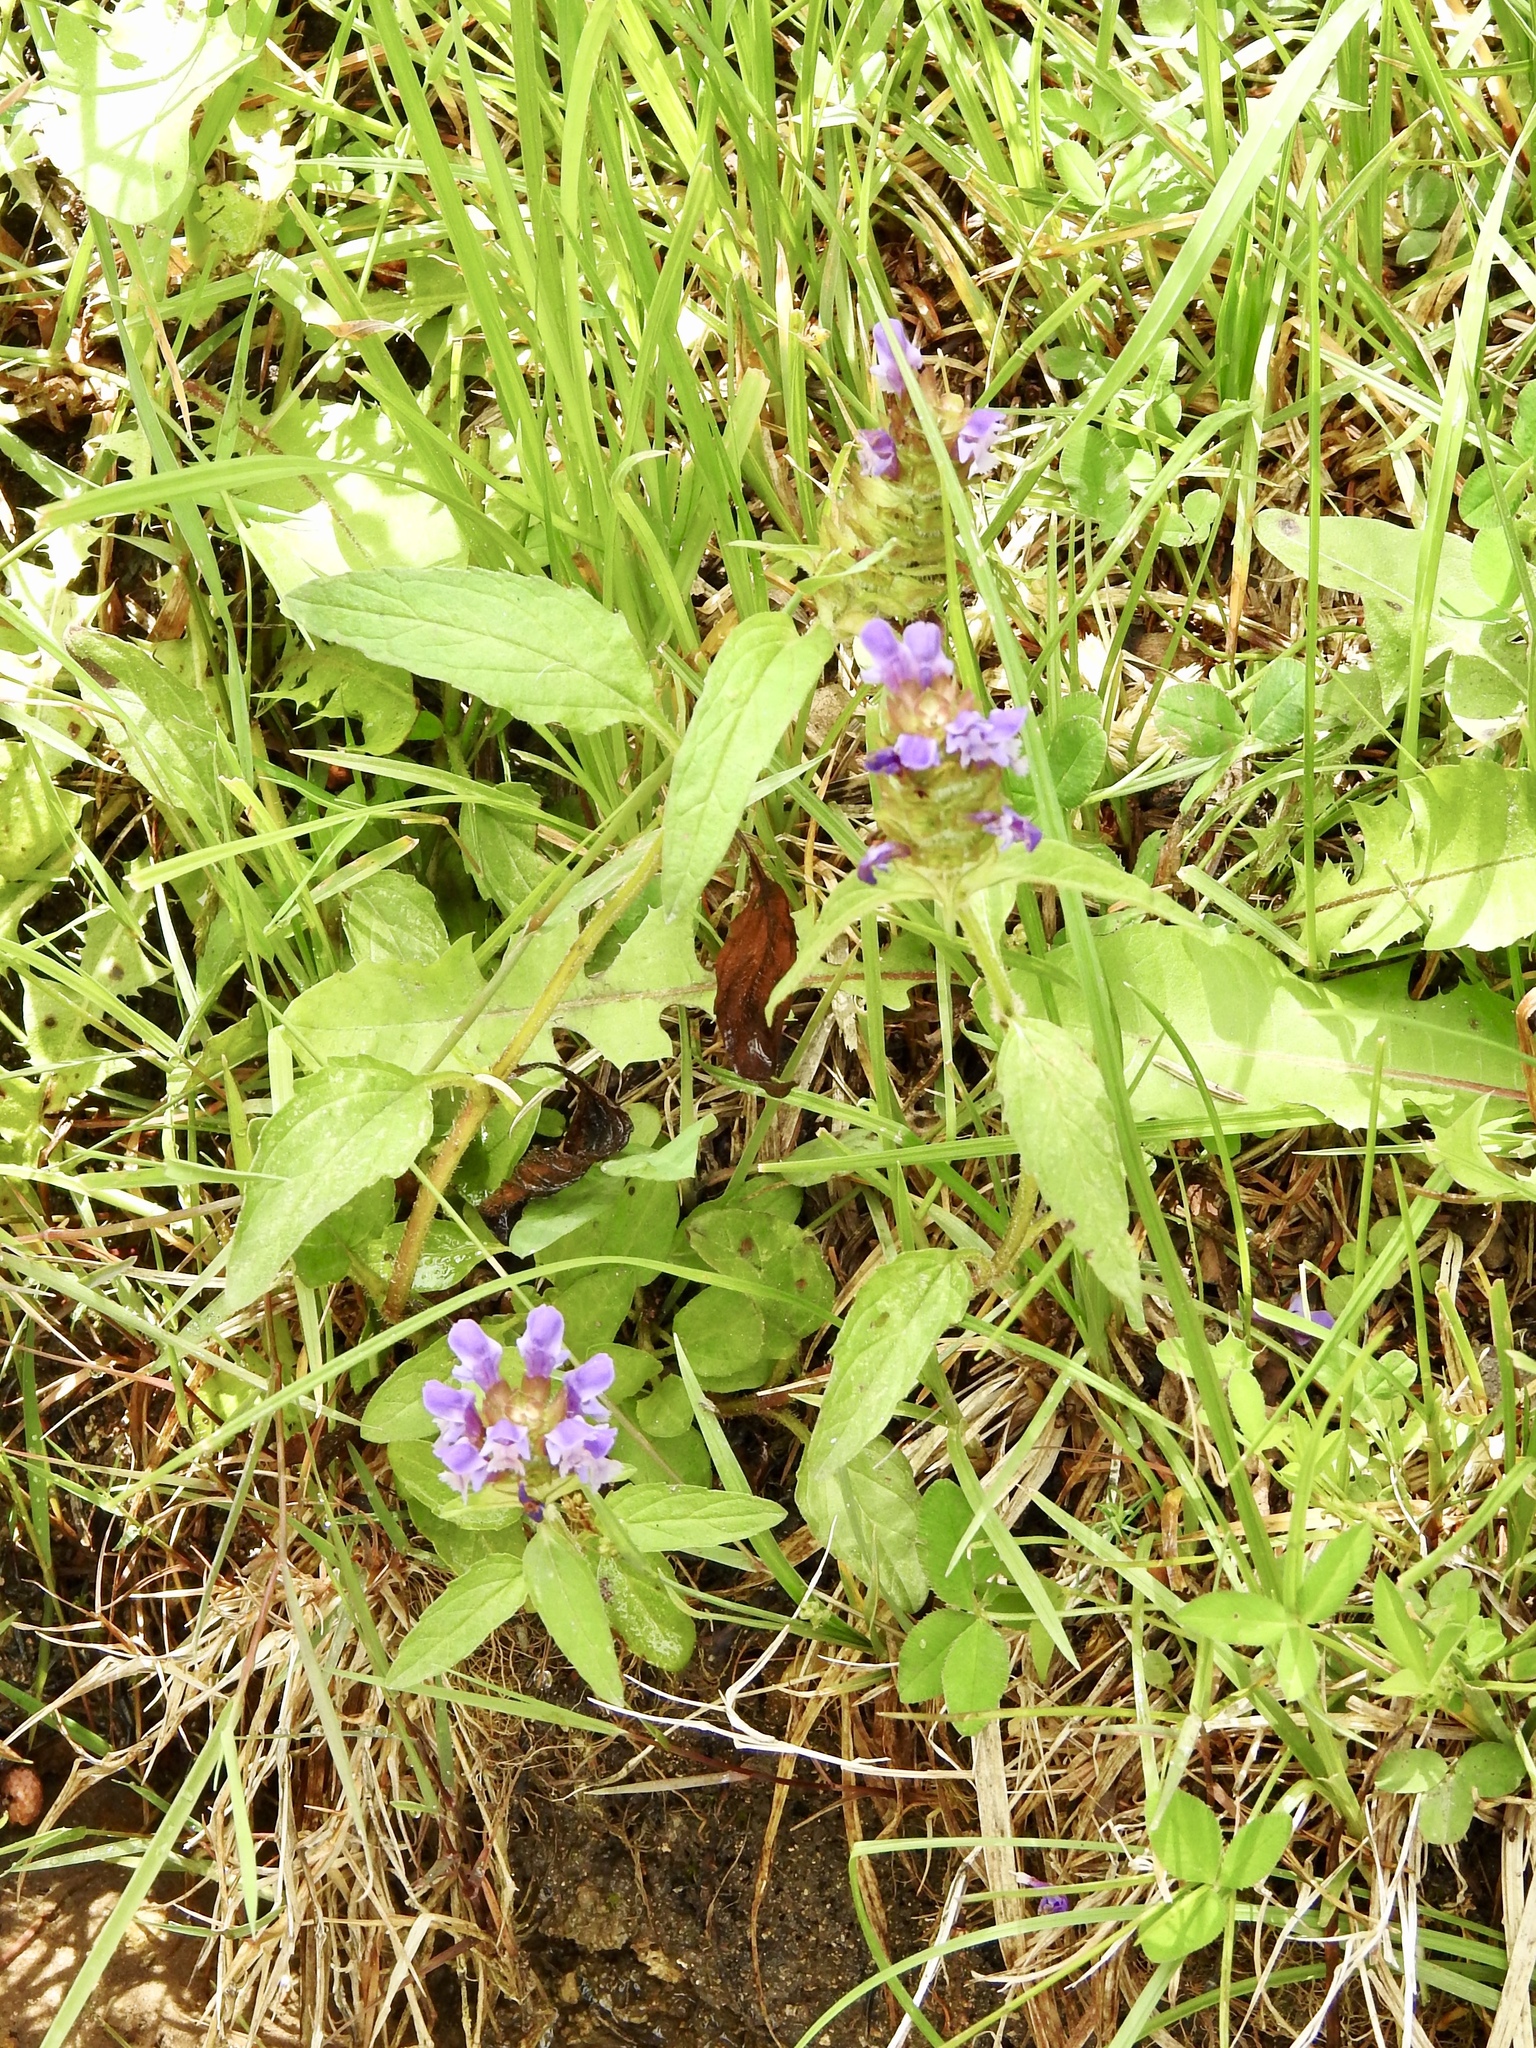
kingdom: Plantae
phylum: Tracheophyta
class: Magnoliopsida
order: Lamiales
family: Lamiaceae
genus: Prunella
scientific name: Prunella vulgaris
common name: Heal-all
